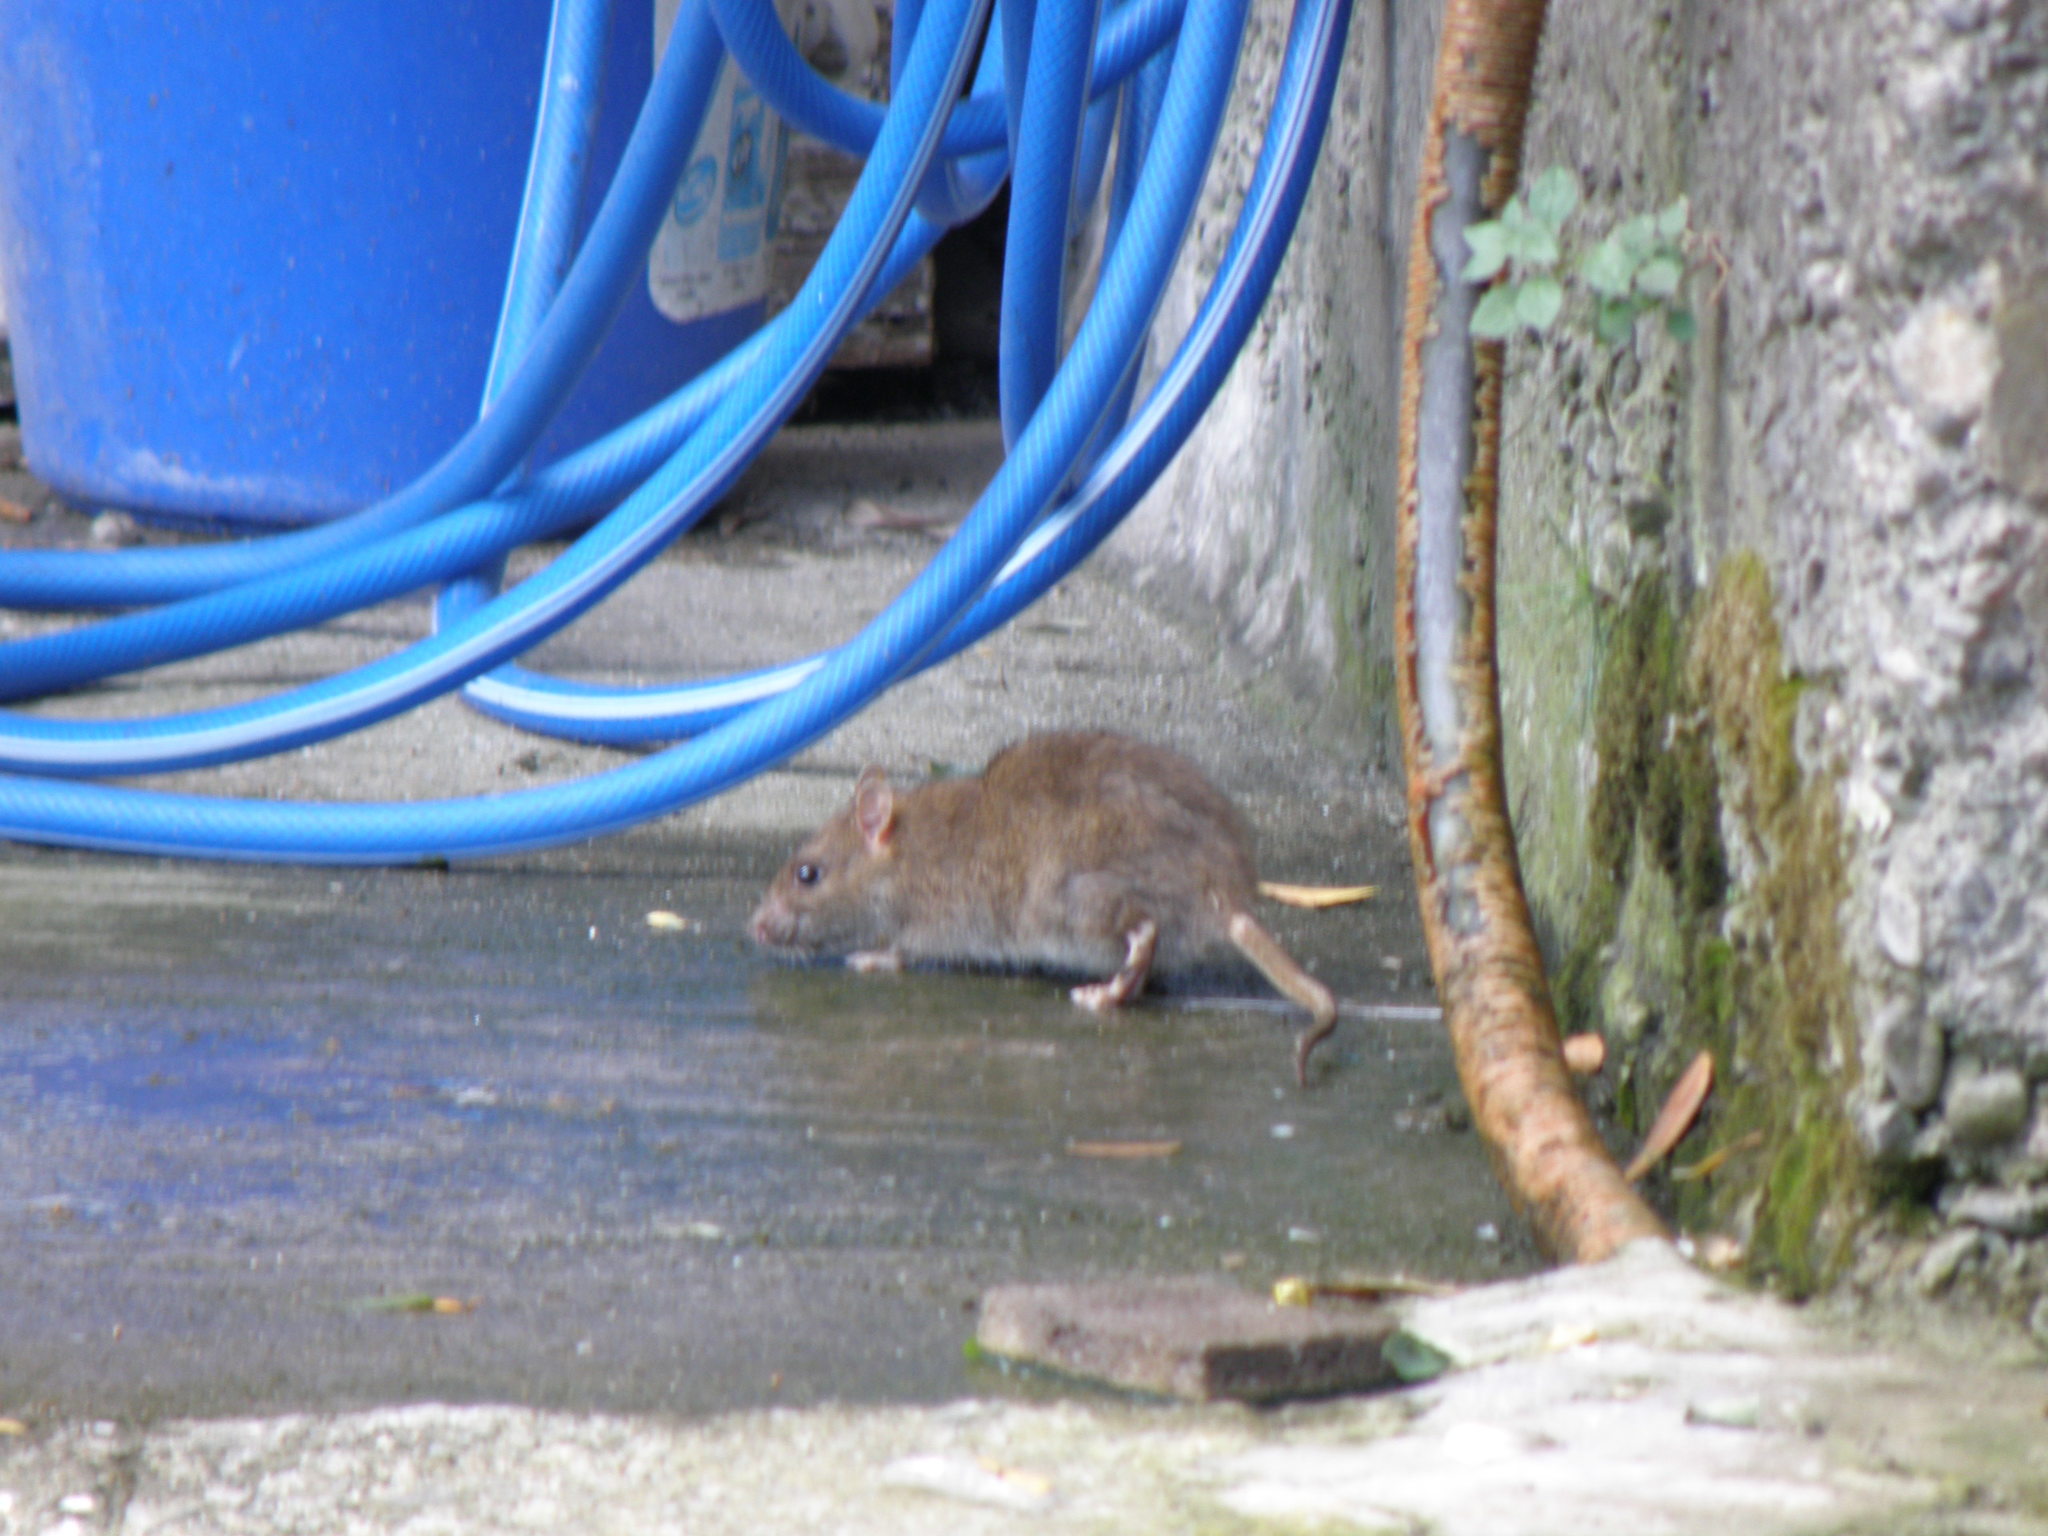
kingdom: Animalia
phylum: Chordata
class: Mammalia
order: Rodentia
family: Muridae
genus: Rattus
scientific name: Rattus norvegicus
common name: Brown rat
